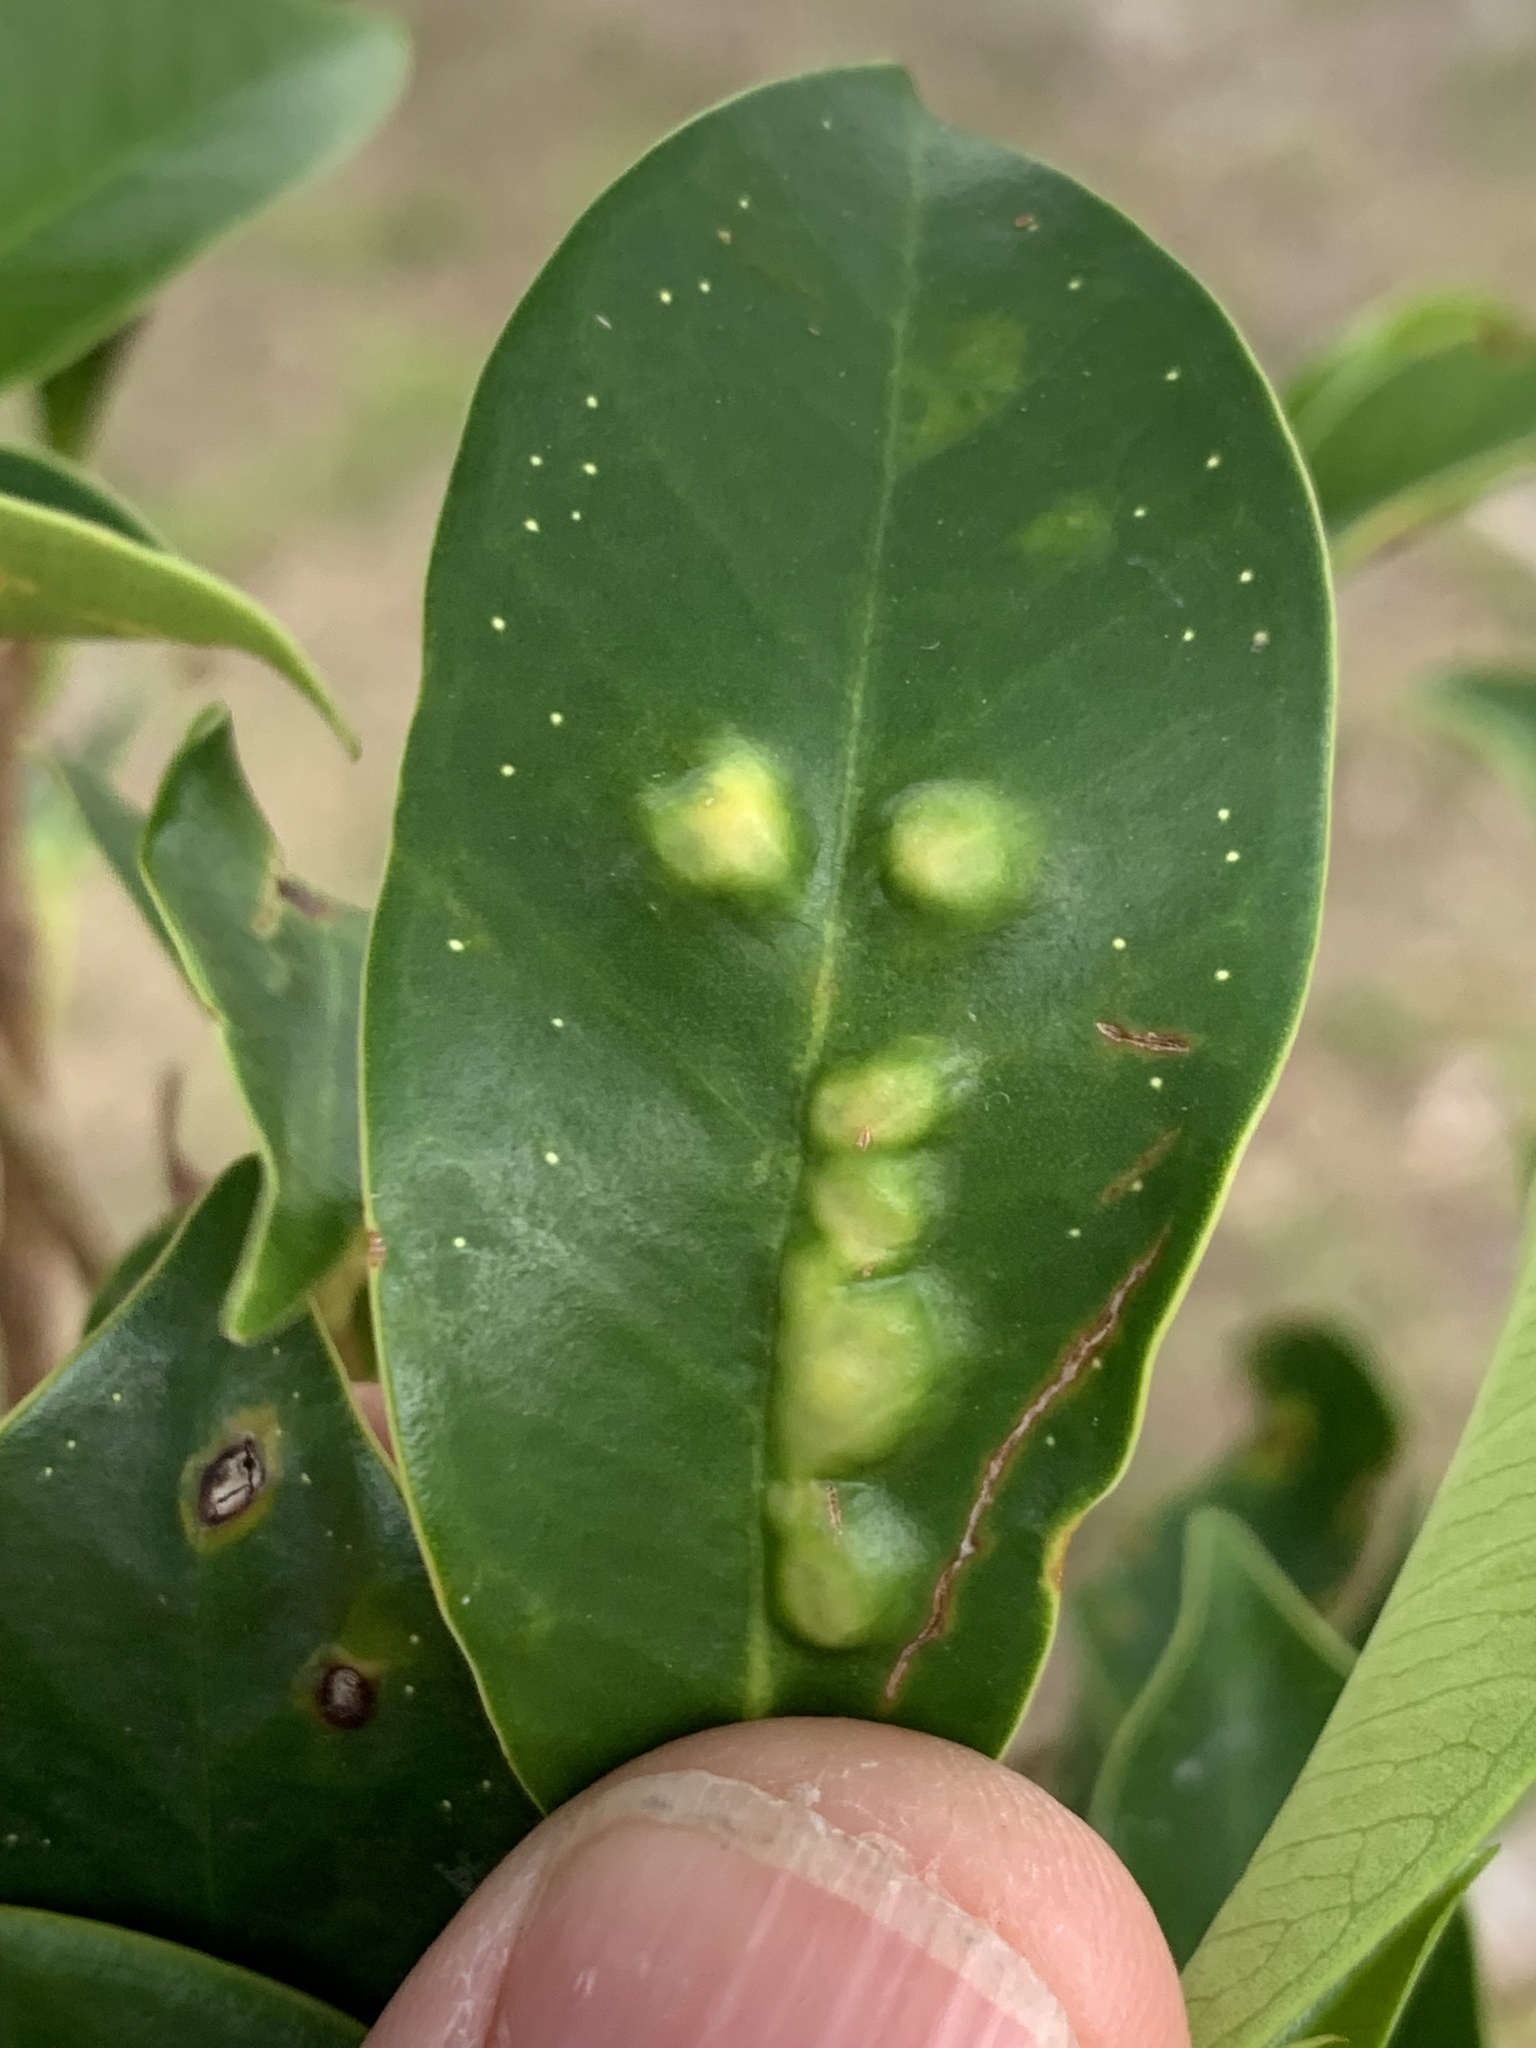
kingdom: Animalia
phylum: Arthropoda
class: Insecta
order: Hymenoptera
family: Agaonidae
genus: Josephiella
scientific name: Josephiella microcarpae
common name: Wasp
